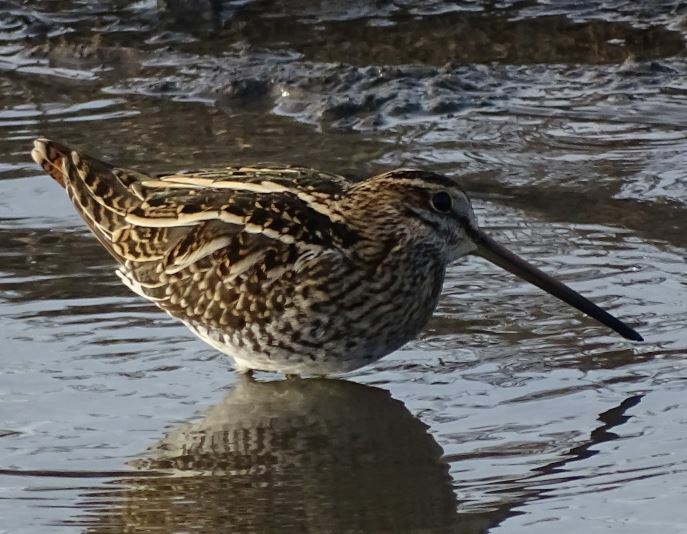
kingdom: Animalia
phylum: Chordata
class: Aves
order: Charadriiformes
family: Scolopacidae
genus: Gallinago
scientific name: Gallinago gallinago
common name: Common snipe
